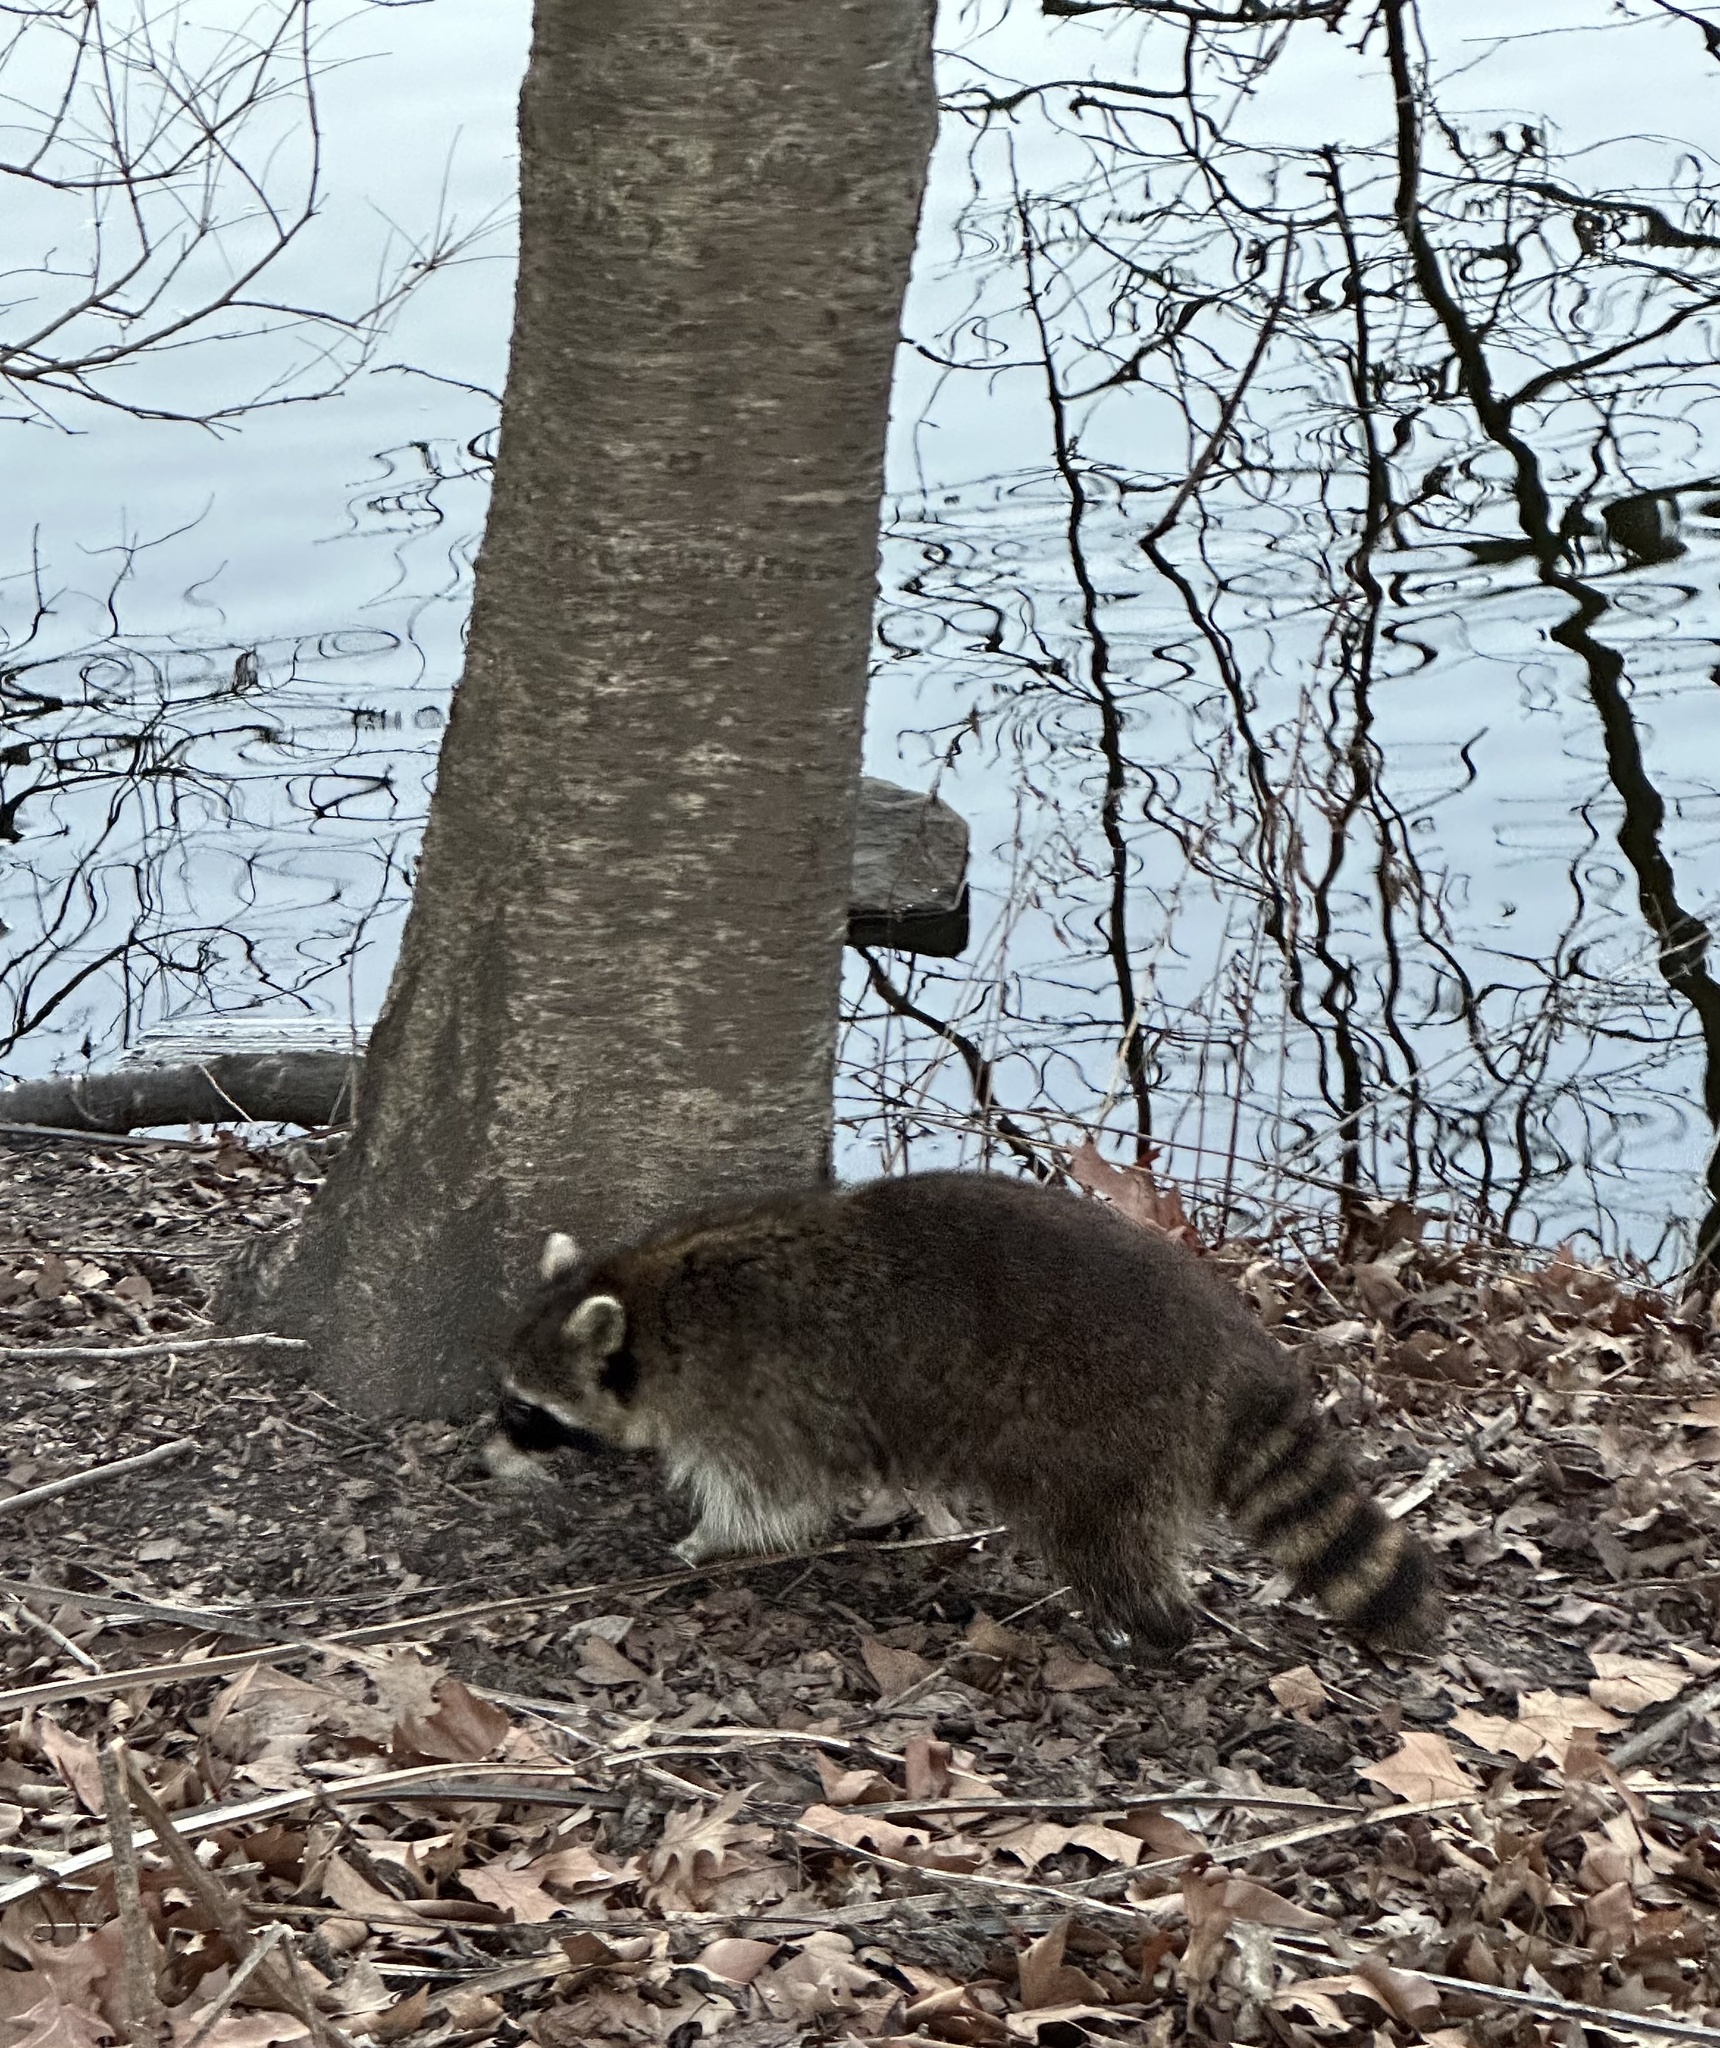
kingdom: Animalia
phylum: Chordata
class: Mammalia
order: Carnivora
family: Procyonidae
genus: Procyon
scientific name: Procyon lotor
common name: Raccoon
